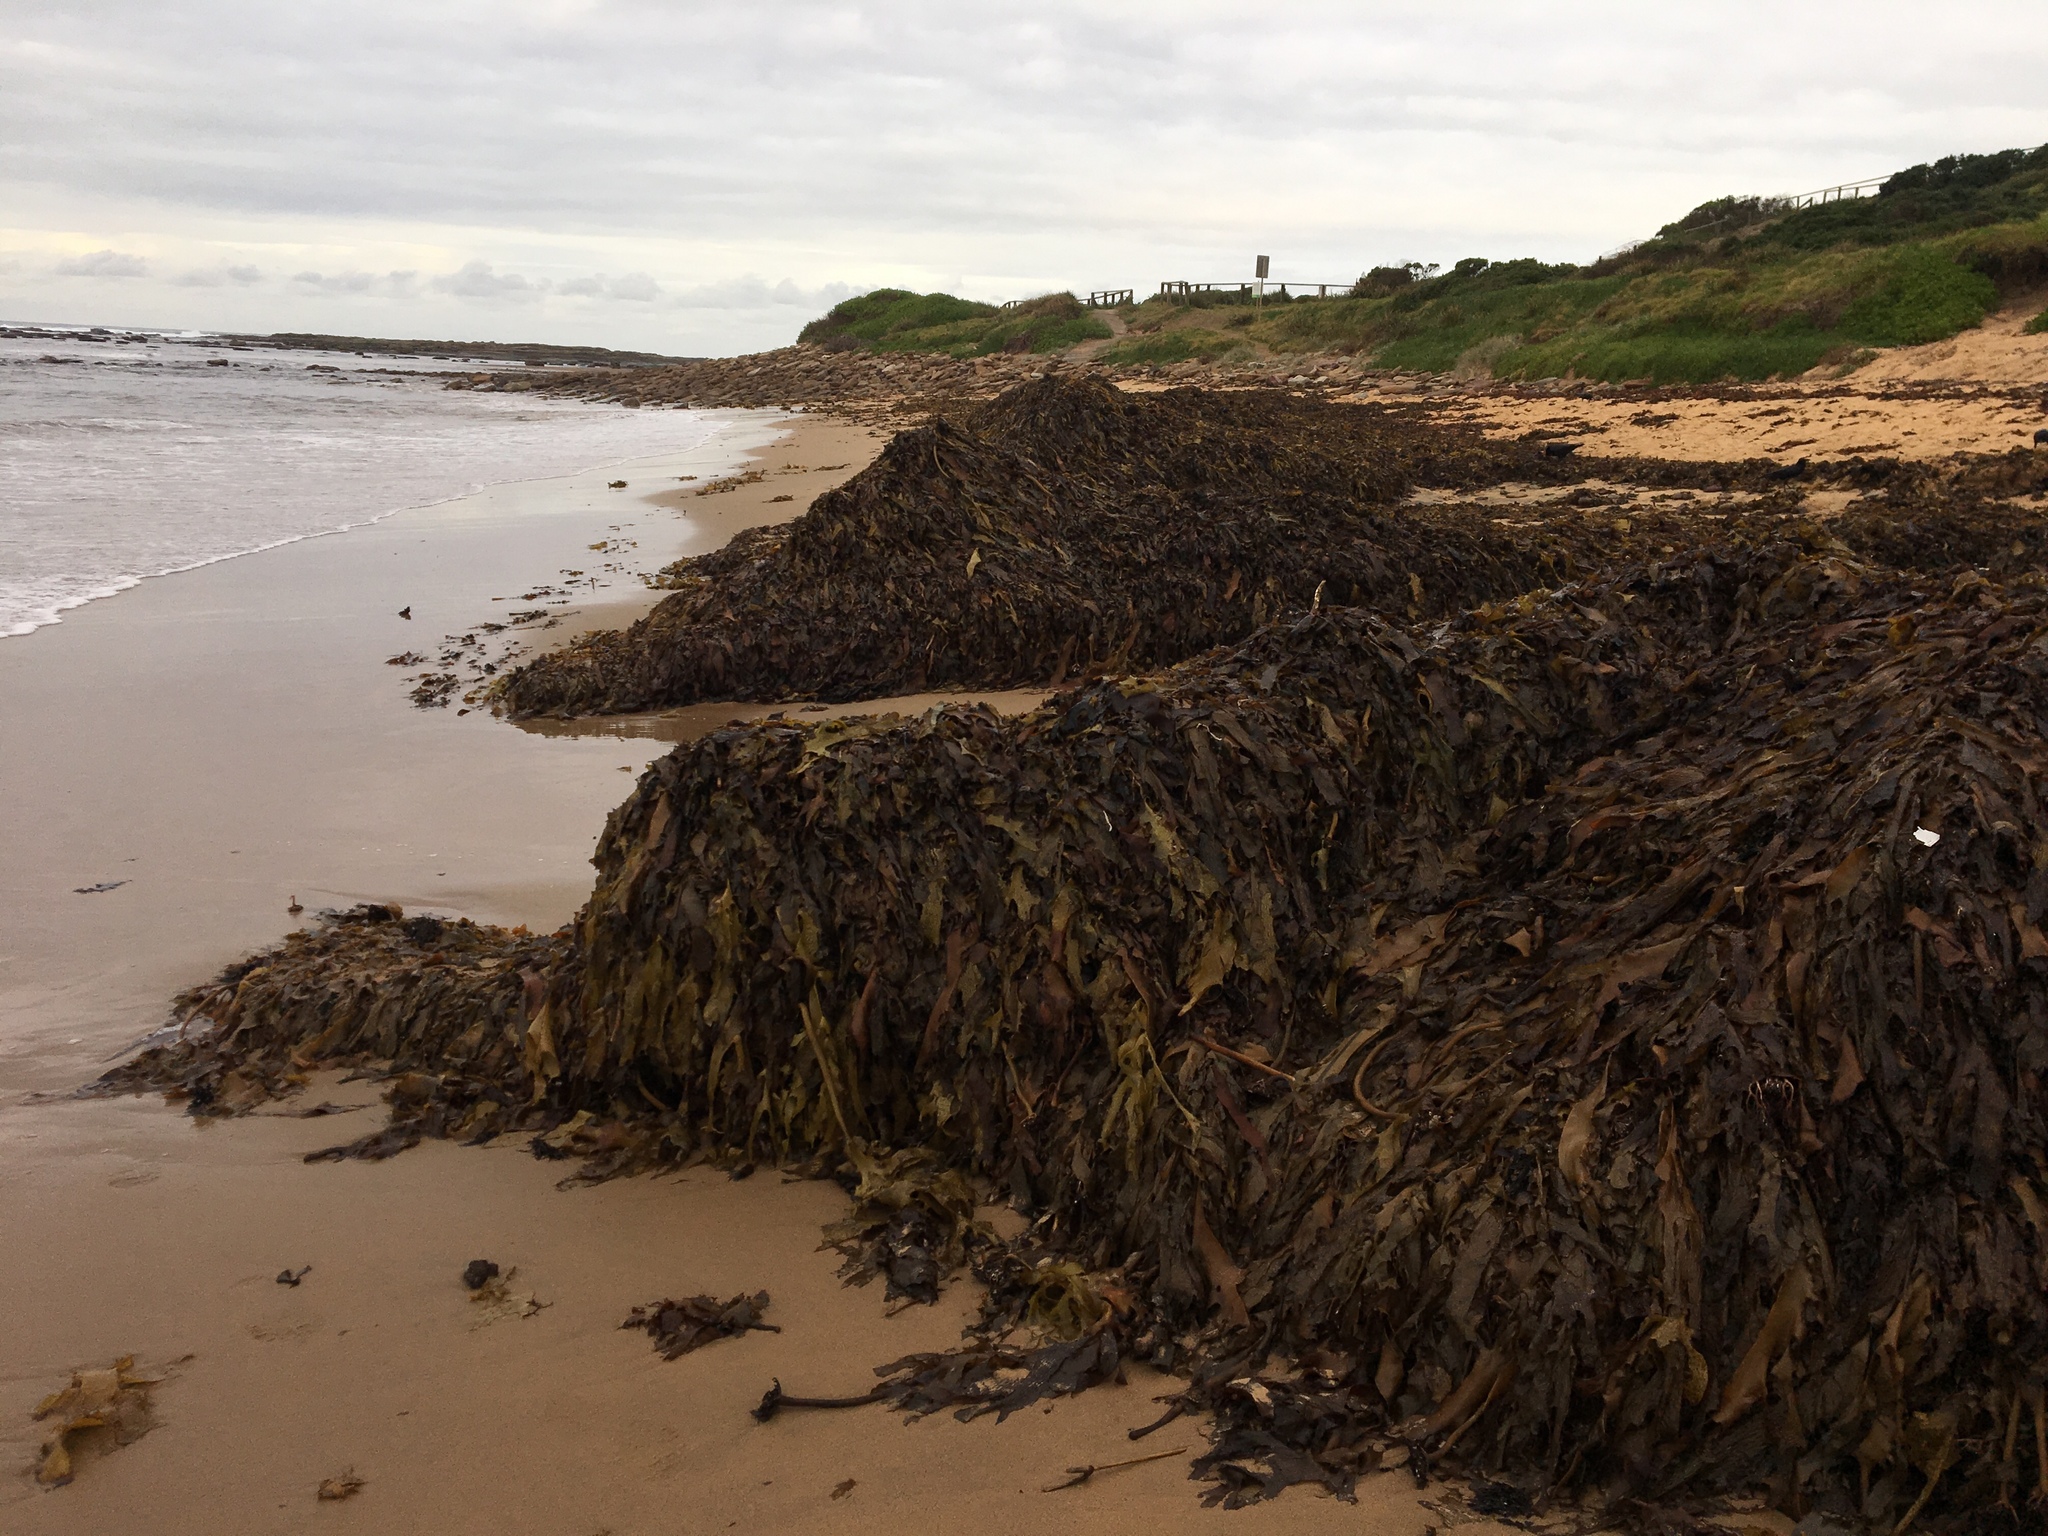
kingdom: Chromista
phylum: Ochrophyta
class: Phaeophyceae
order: Laminariales
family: Lessoniaceae
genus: Ecklonia
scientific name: Ecklonia radiata
